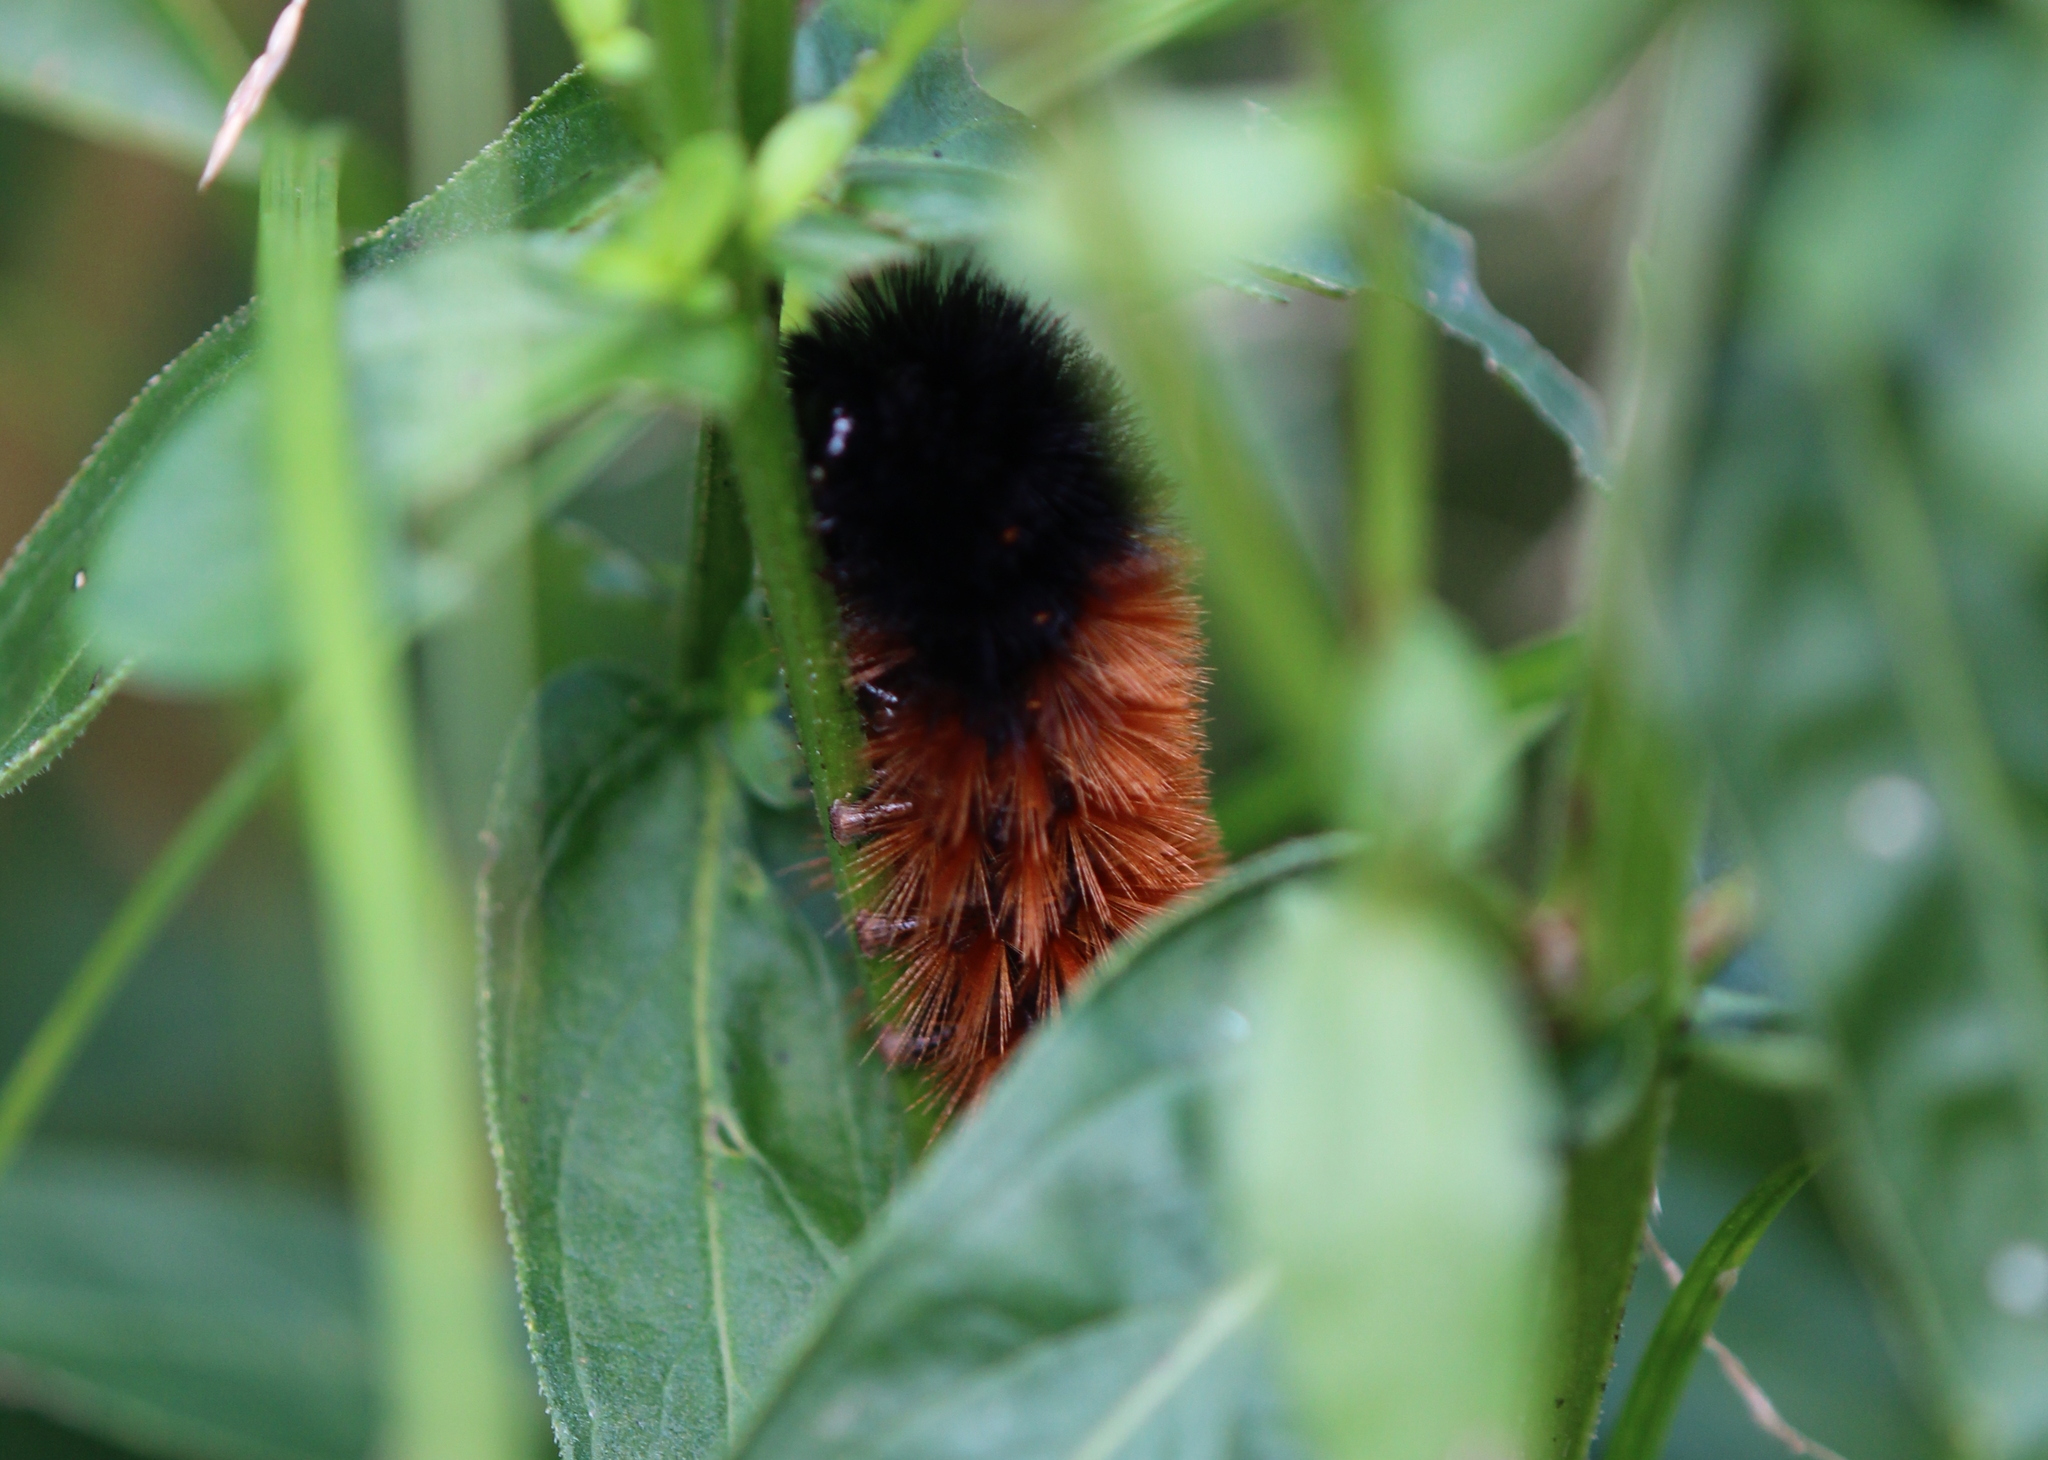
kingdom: Animalia
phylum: Arthropoda
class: Insecta
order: Lepidoptera
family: Erebidae
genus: Pyrrharctia
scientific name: Pyrrharctia isabella
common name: Isabella tiger moth
